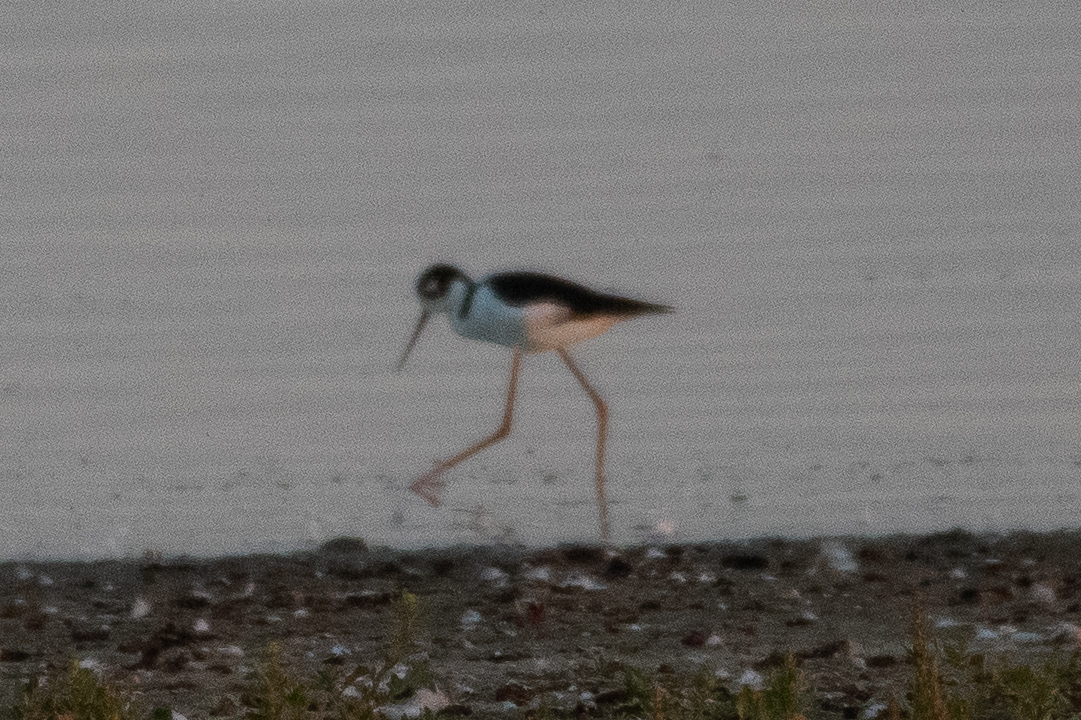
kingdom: Animalia
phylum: Chordata
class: Aves
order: Charadriiformes
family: Recurvirostridae
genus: Himantopus
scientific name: Himantopus mexicanus
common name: Black-necked stilt
